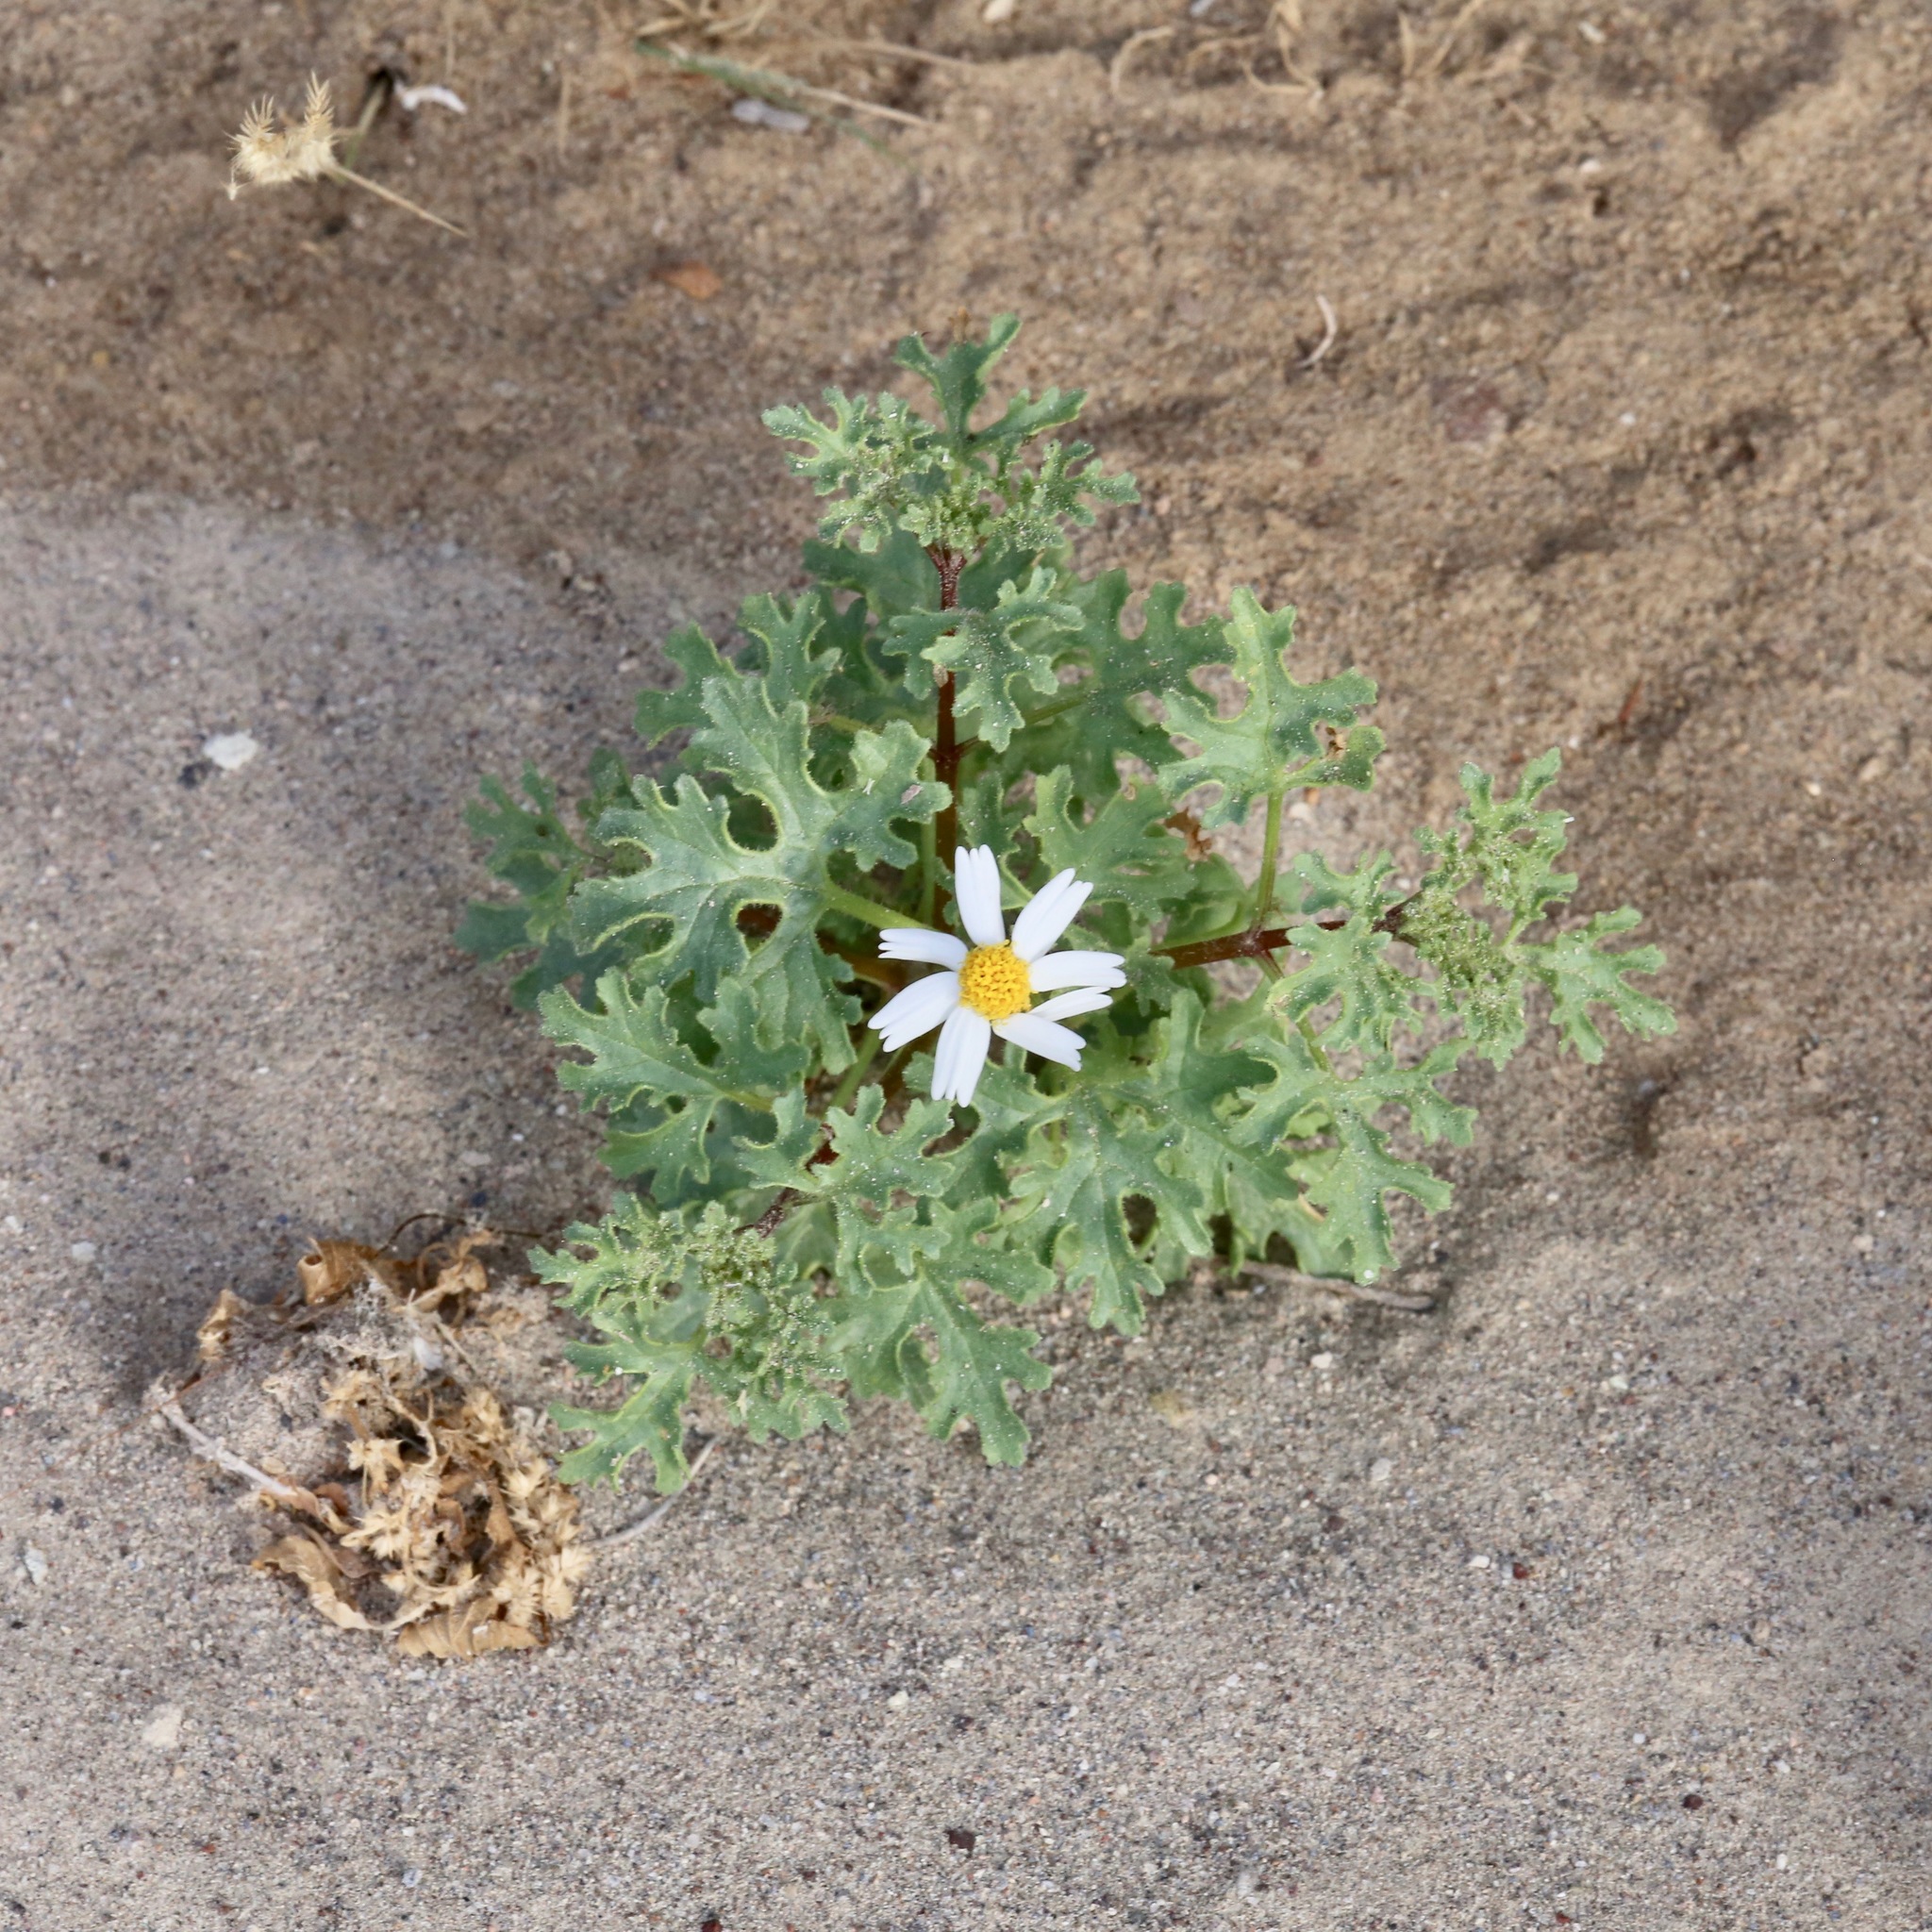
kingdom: Plantae
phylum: Tracheophyta
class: Magnoliopsida
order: Asterales
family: Asteraceae
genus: Perityle
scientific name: Perityle crassifolia
